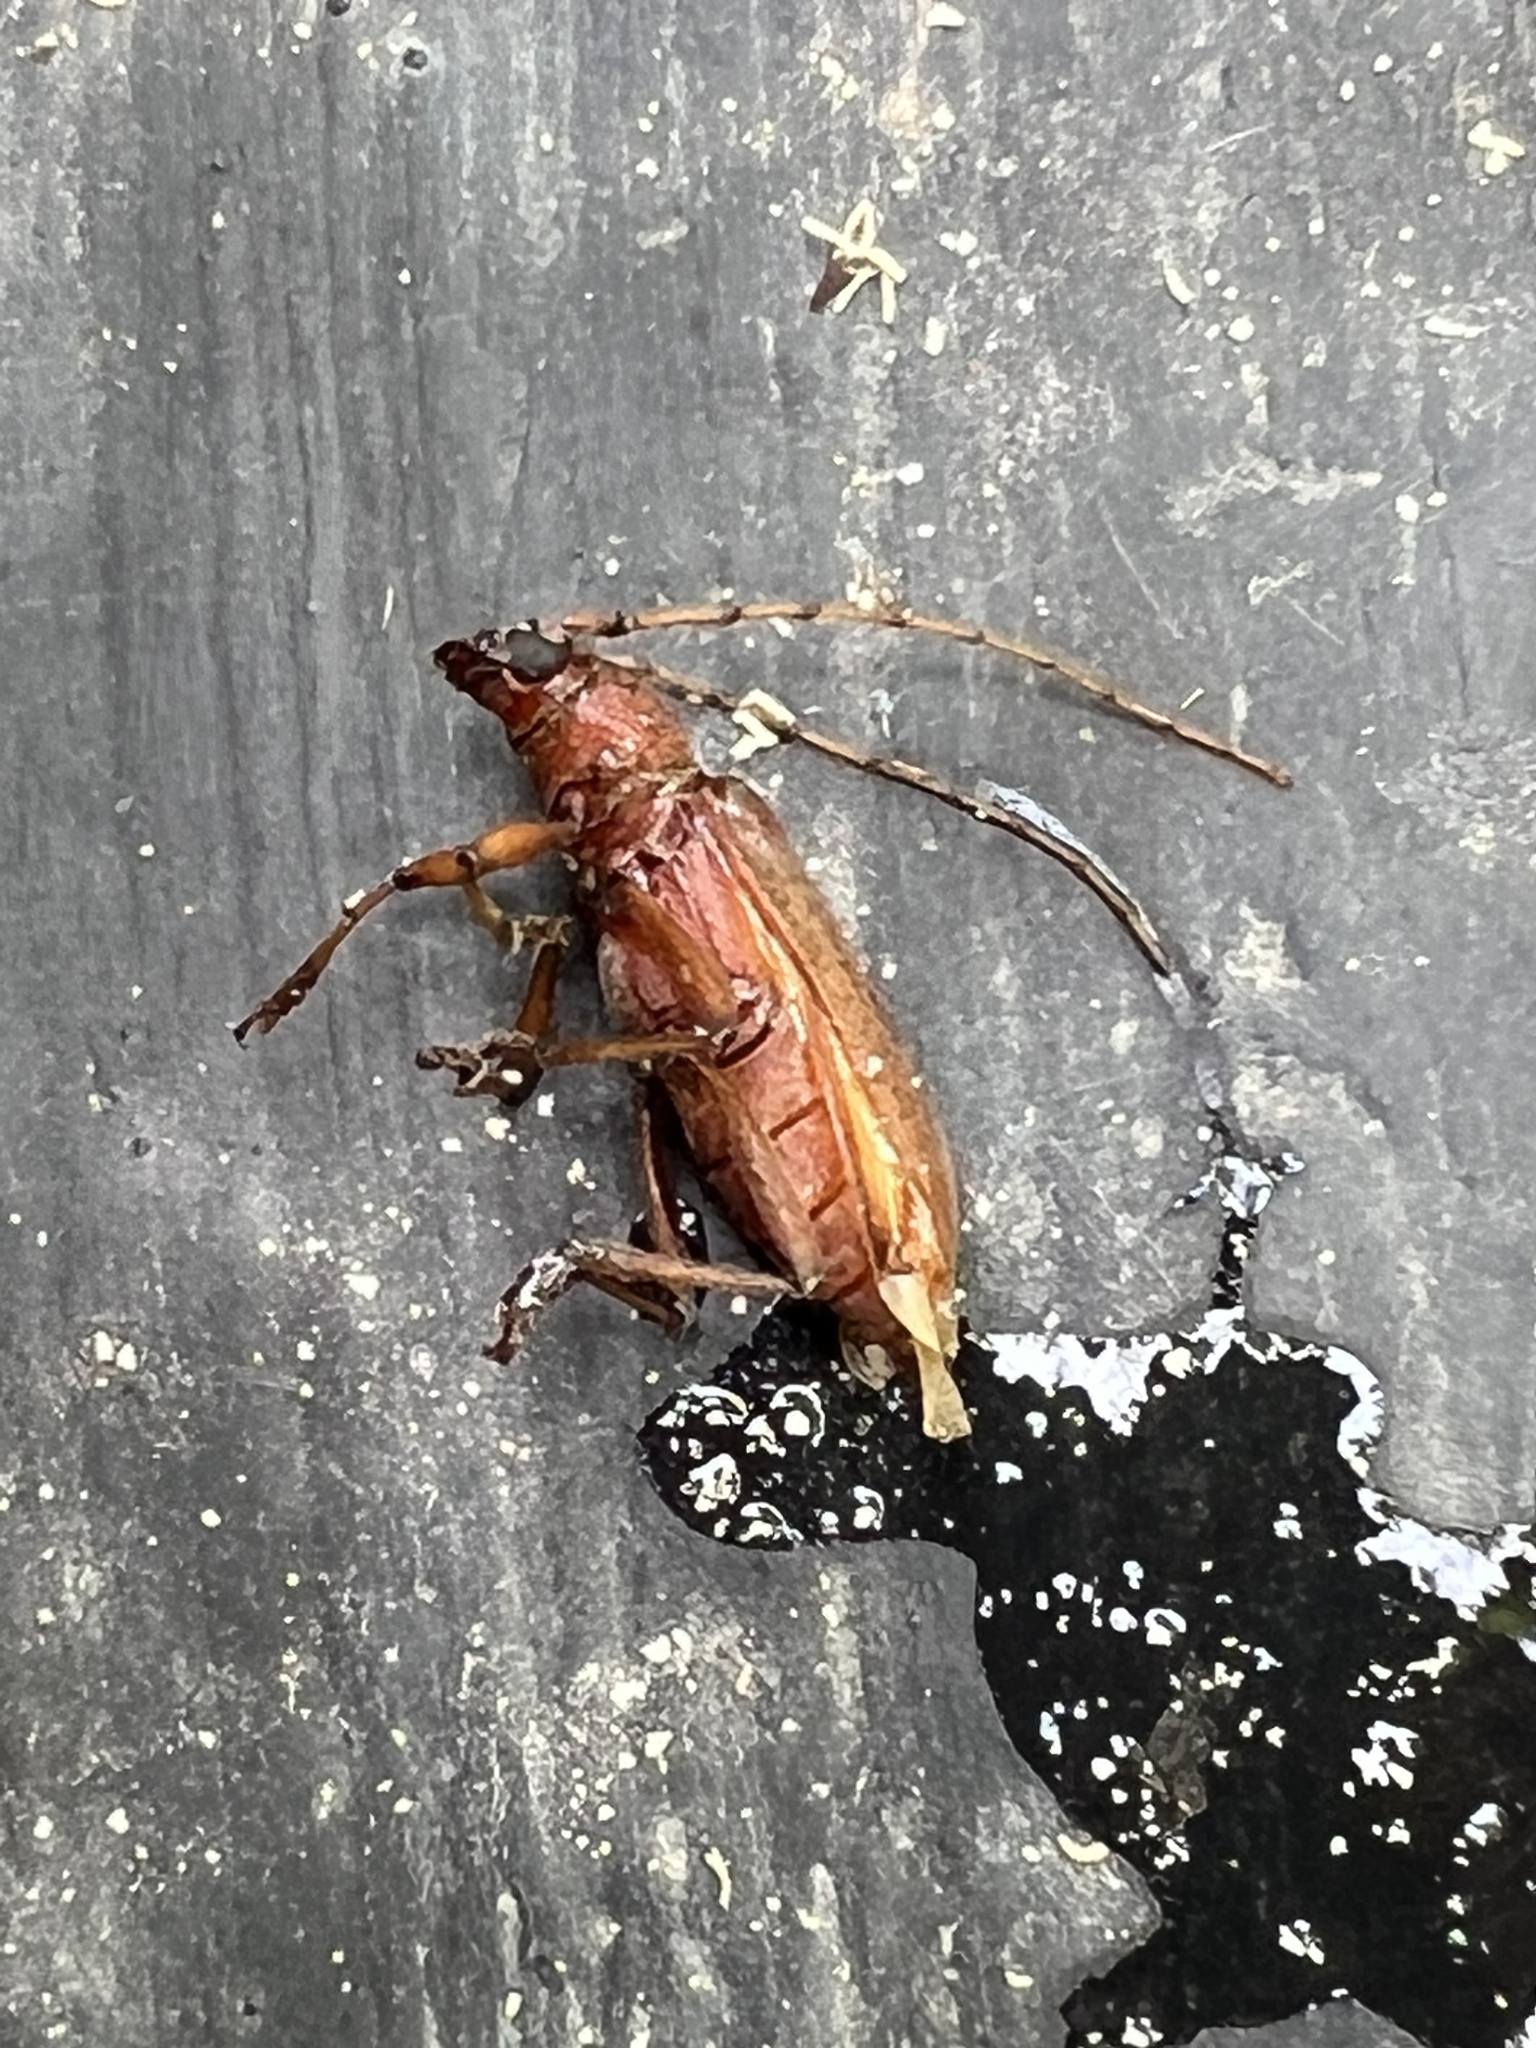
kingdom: Animalia
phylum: Arthropoda
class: Insecta
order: Coleoptera
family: Cerambycidae
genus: Eburia
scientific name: Eburia porulosa
